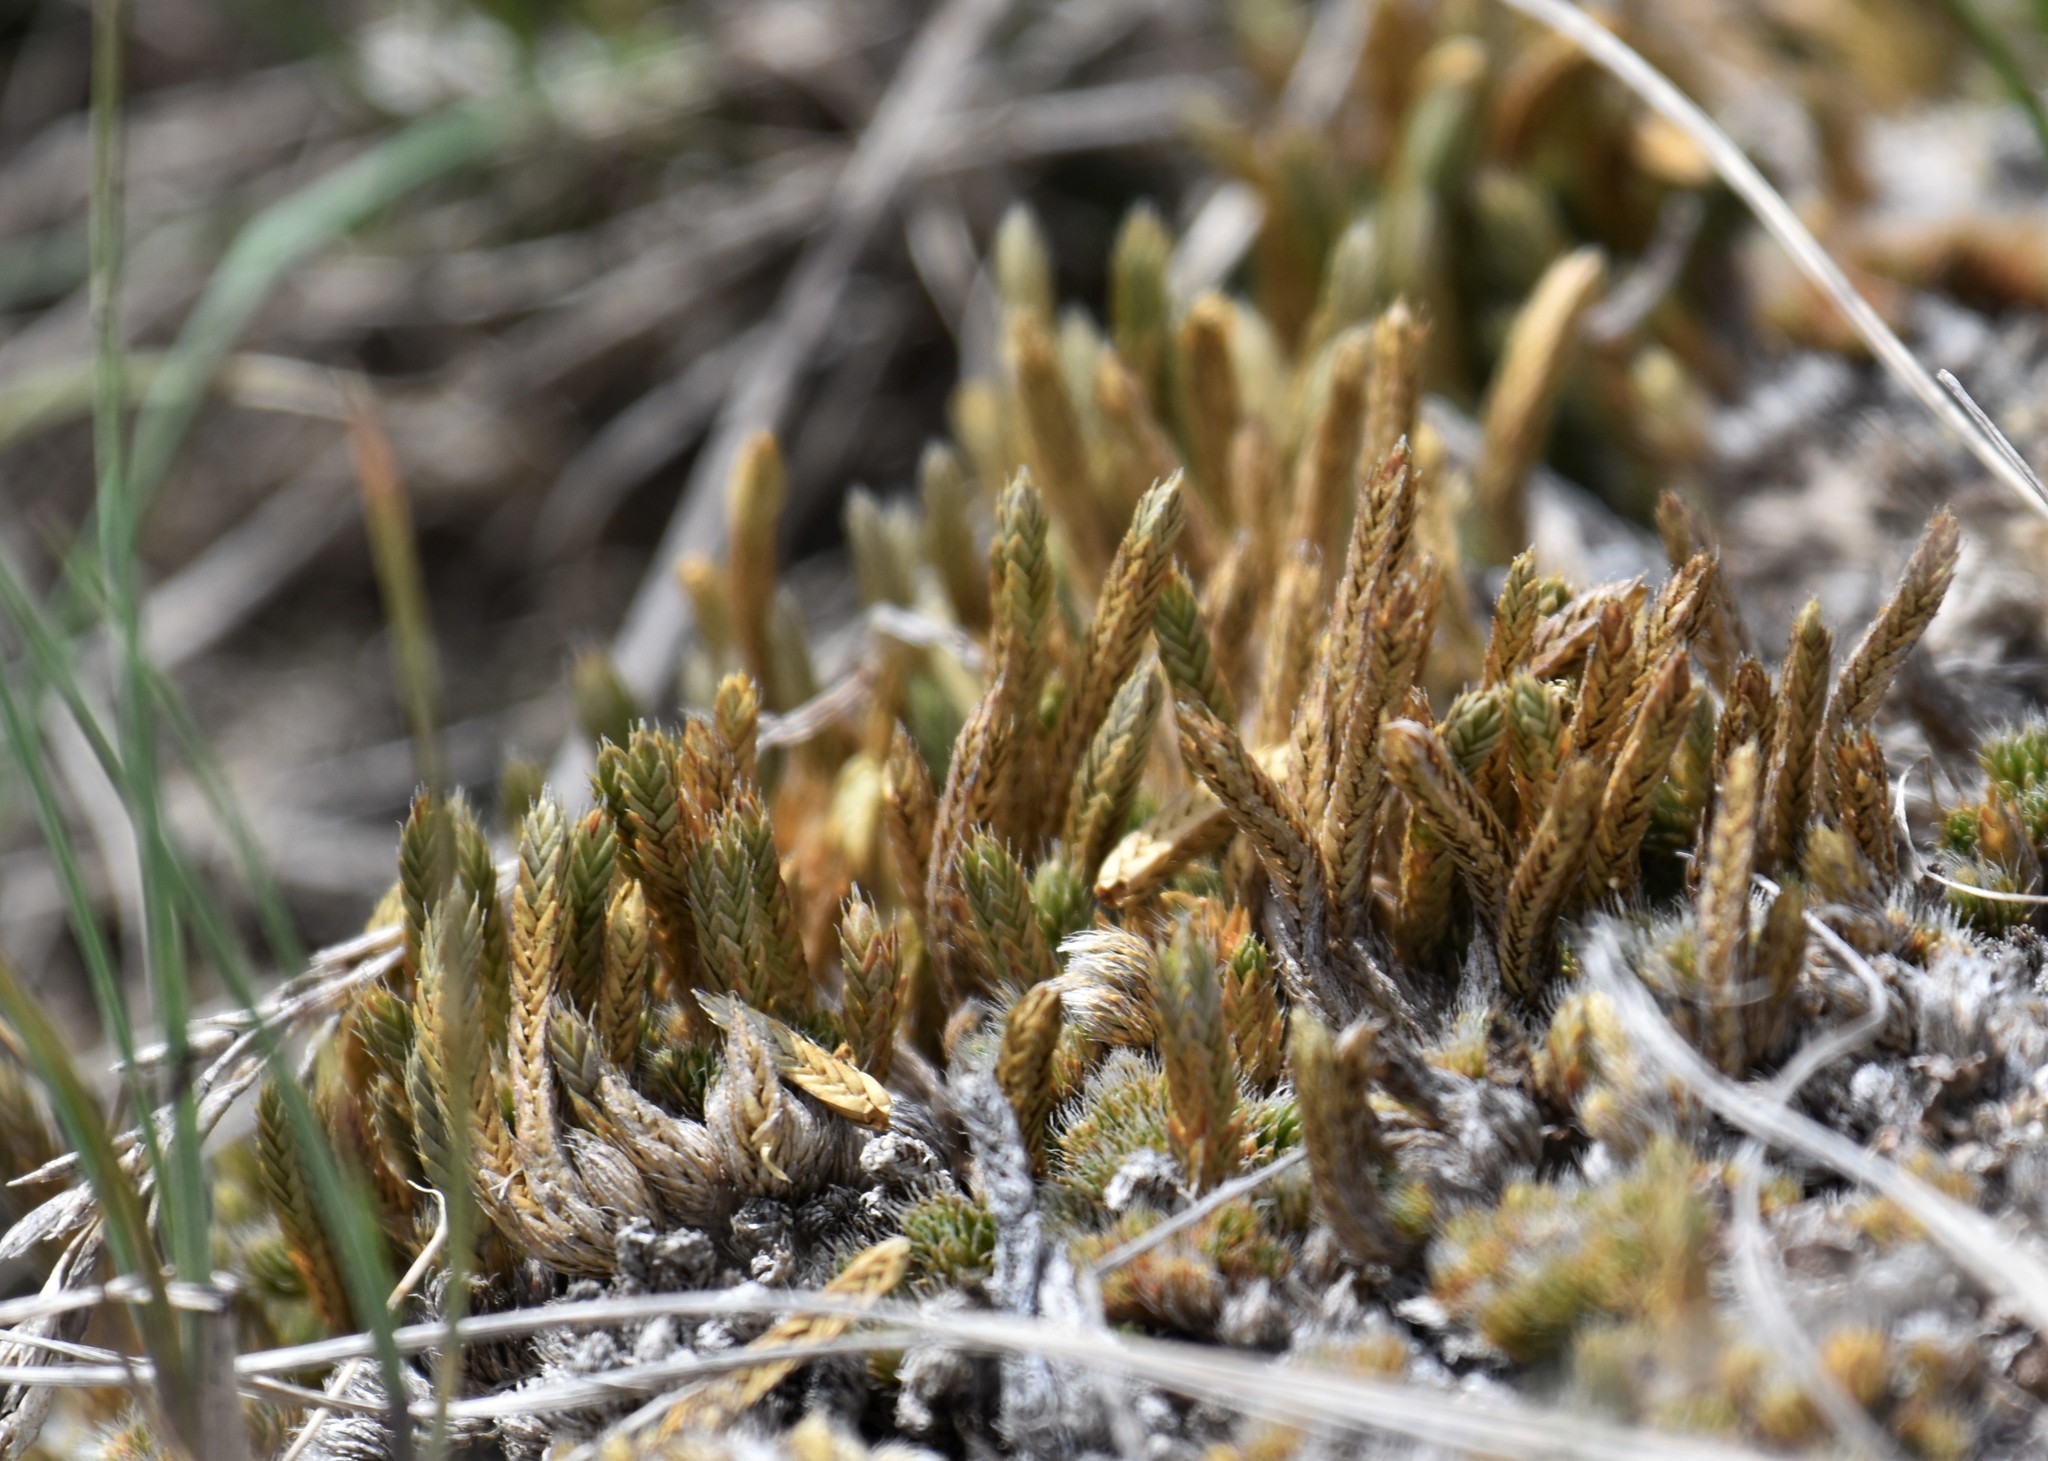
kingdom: Plantae
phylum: Tracheophyta
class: Lycopodiopsida
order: Selaginellales
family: Selaginellaceae
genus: Selaginella
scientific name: Selaginella densa
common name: Mountain spike-moss
